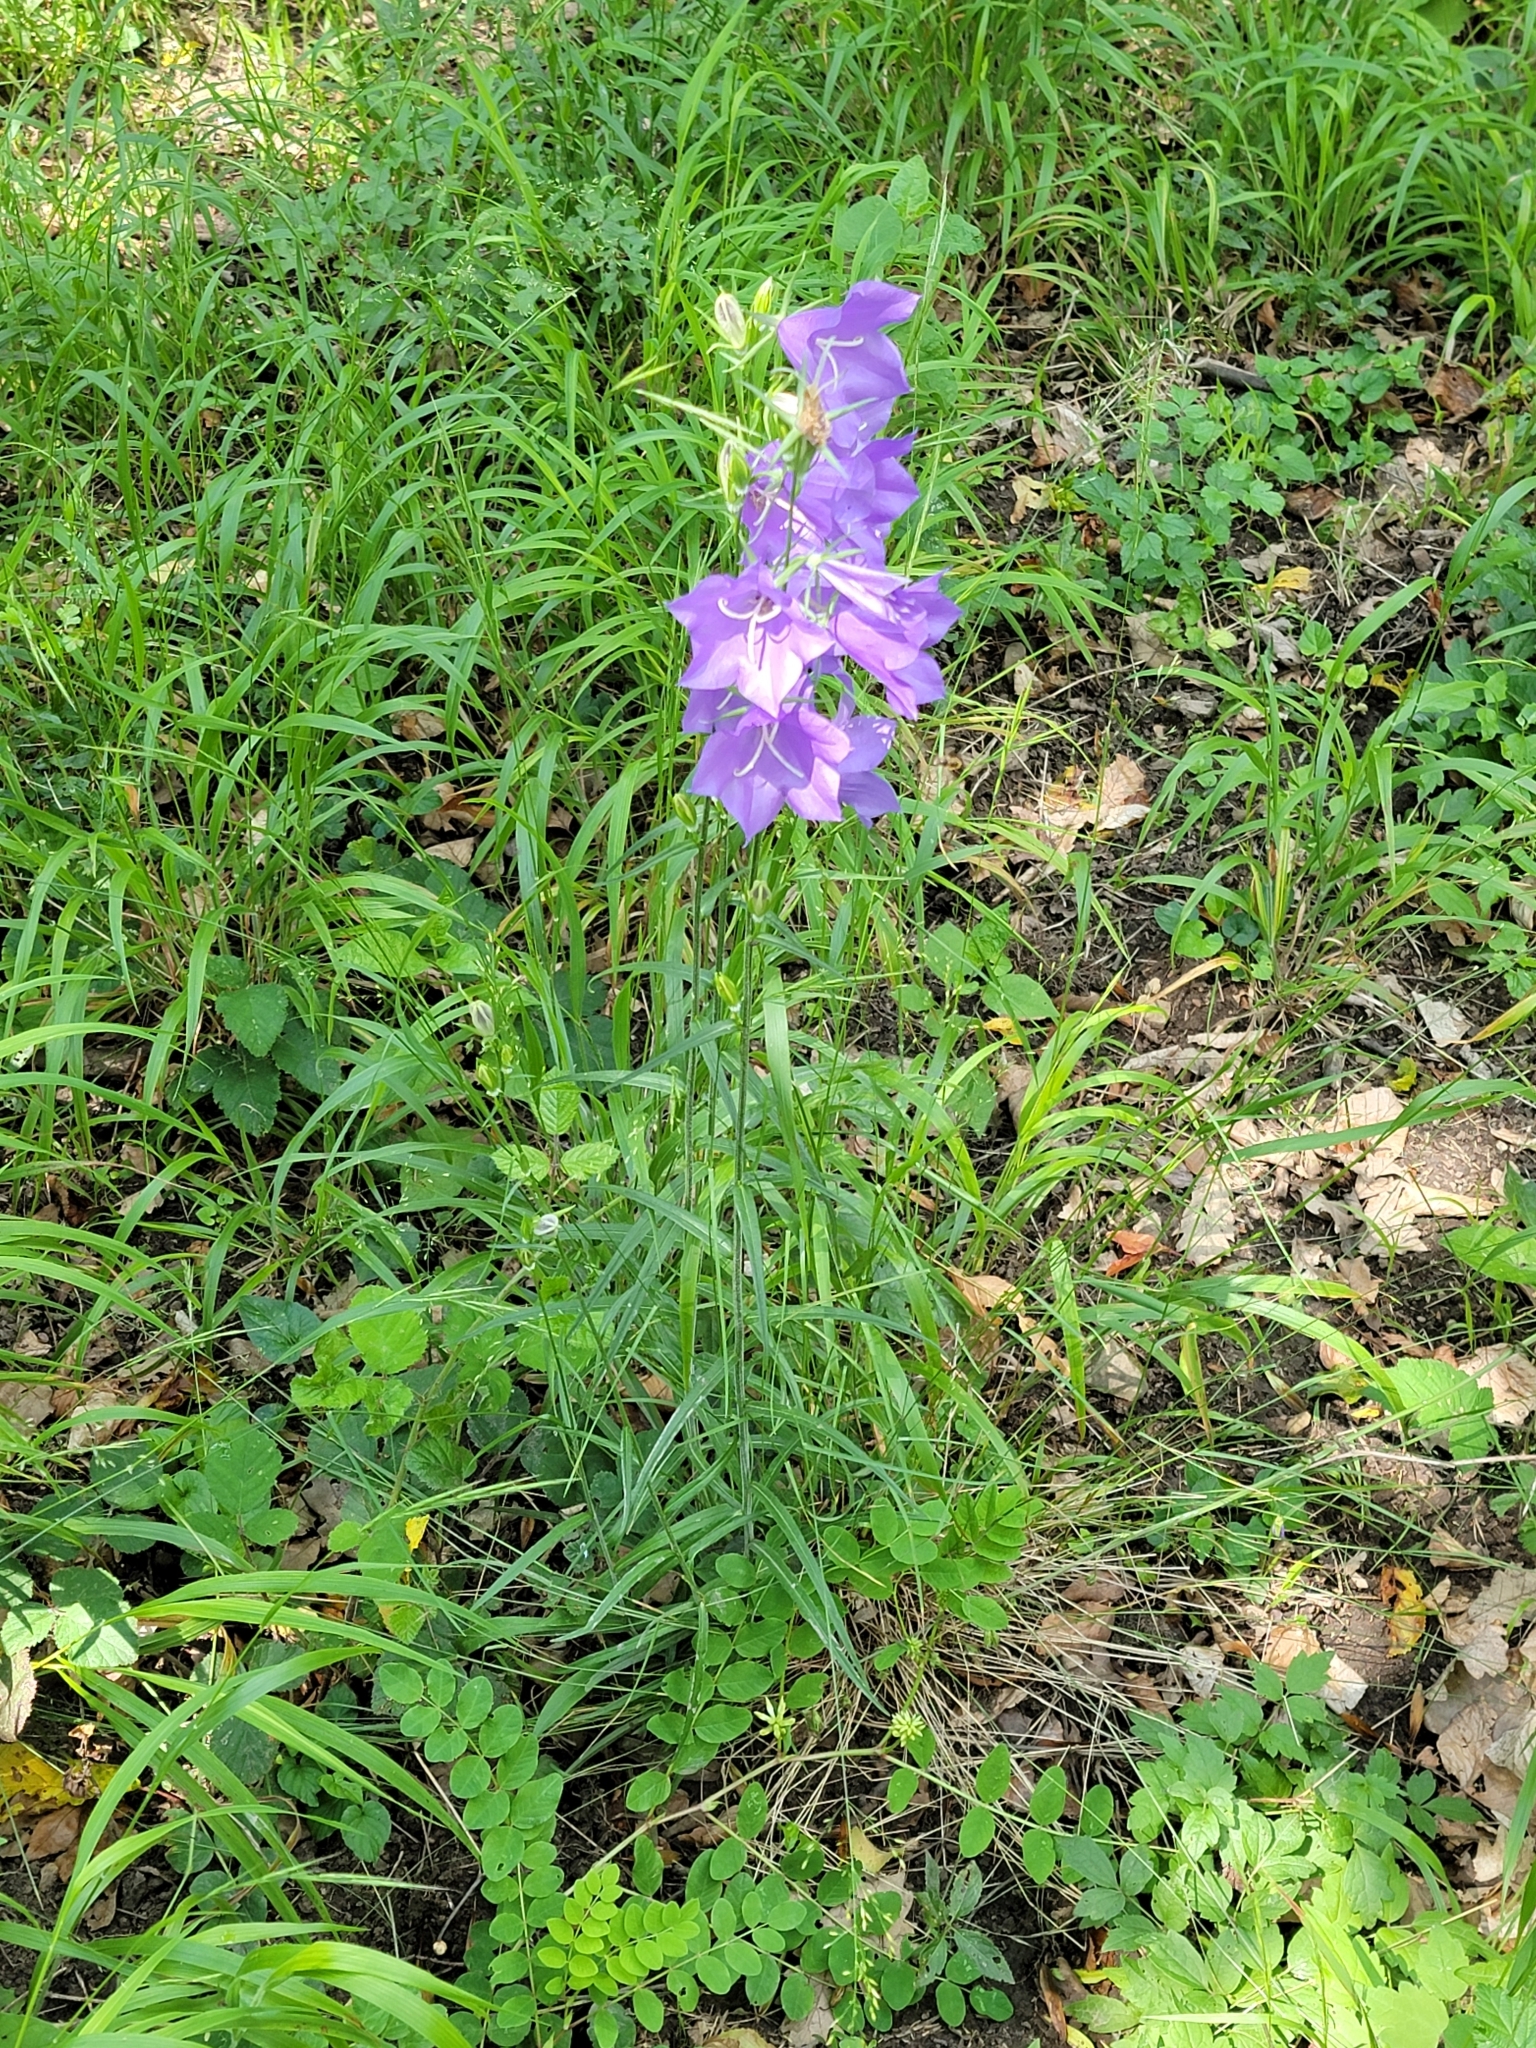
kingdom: Plantae
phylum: Tracheophyta
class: Magnoliopsida
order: Asterales
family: Campanulaceae
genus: Campanula
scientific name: Campanula persicifolia
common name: Peach-leaved bellflower
